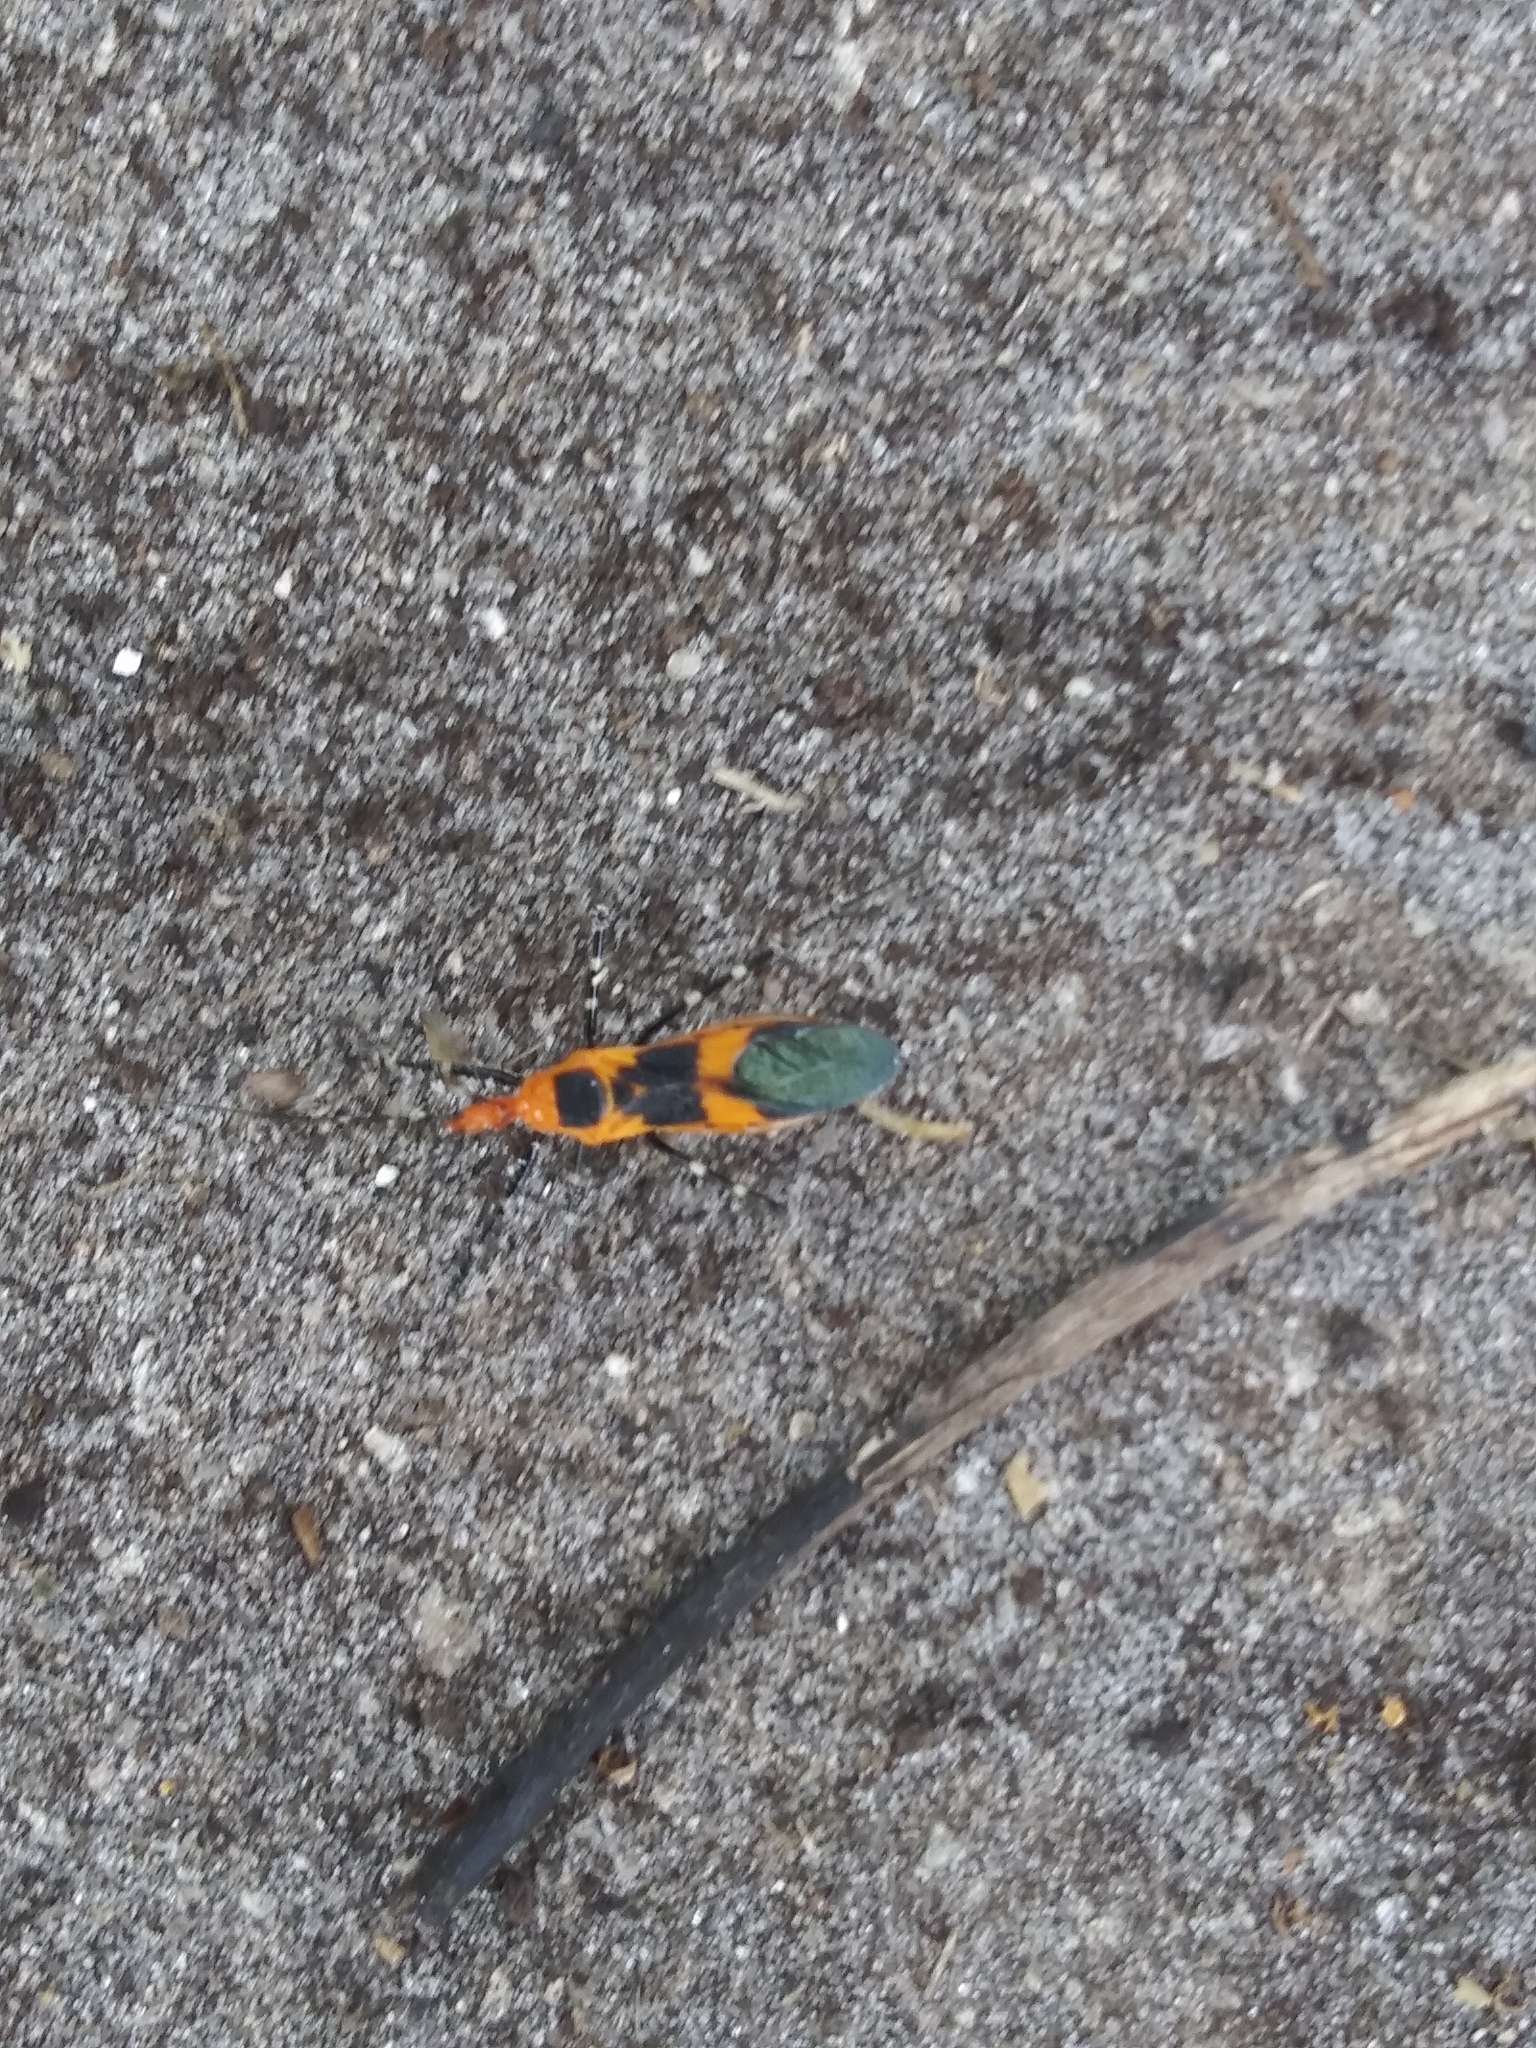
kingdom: Animalia
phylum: Arthropoda
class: Insecta
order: Hemiptera
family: Reduviidae
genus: Zelus
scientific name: Zelus longipes
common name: Milkweed assassin bug
